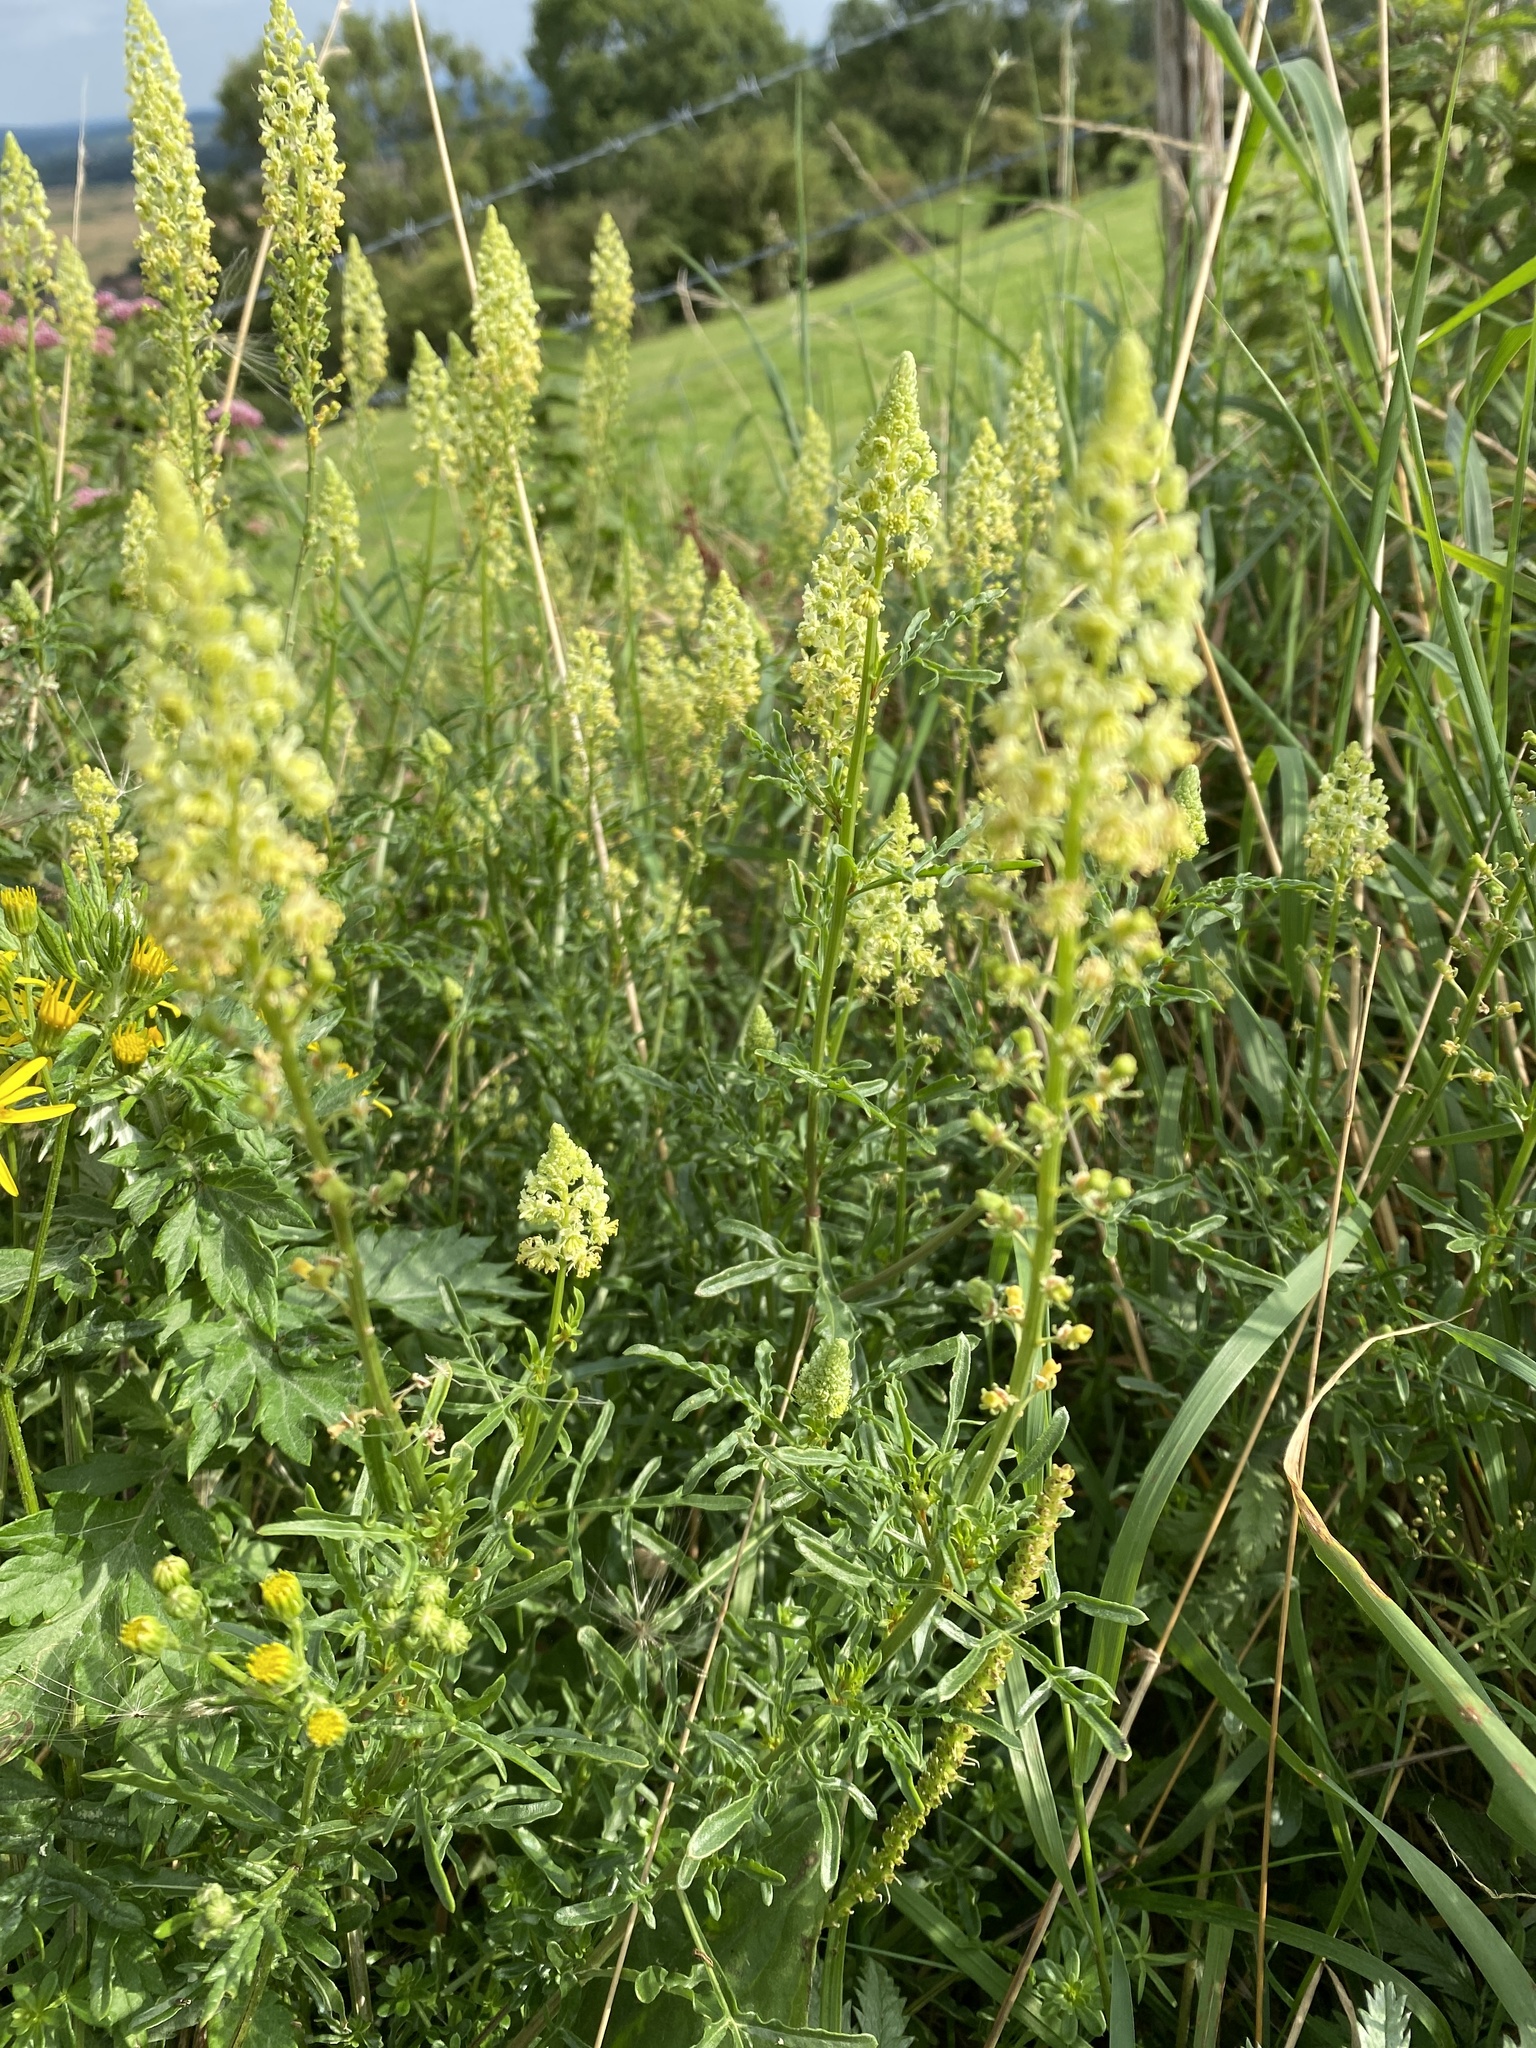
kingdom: Plantae
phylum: Tracheophyta
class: Magnoliopsida
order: Brassicales
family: Resedaceae
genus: Reseda
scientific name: Reseda lutea
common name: Wild mignonette
